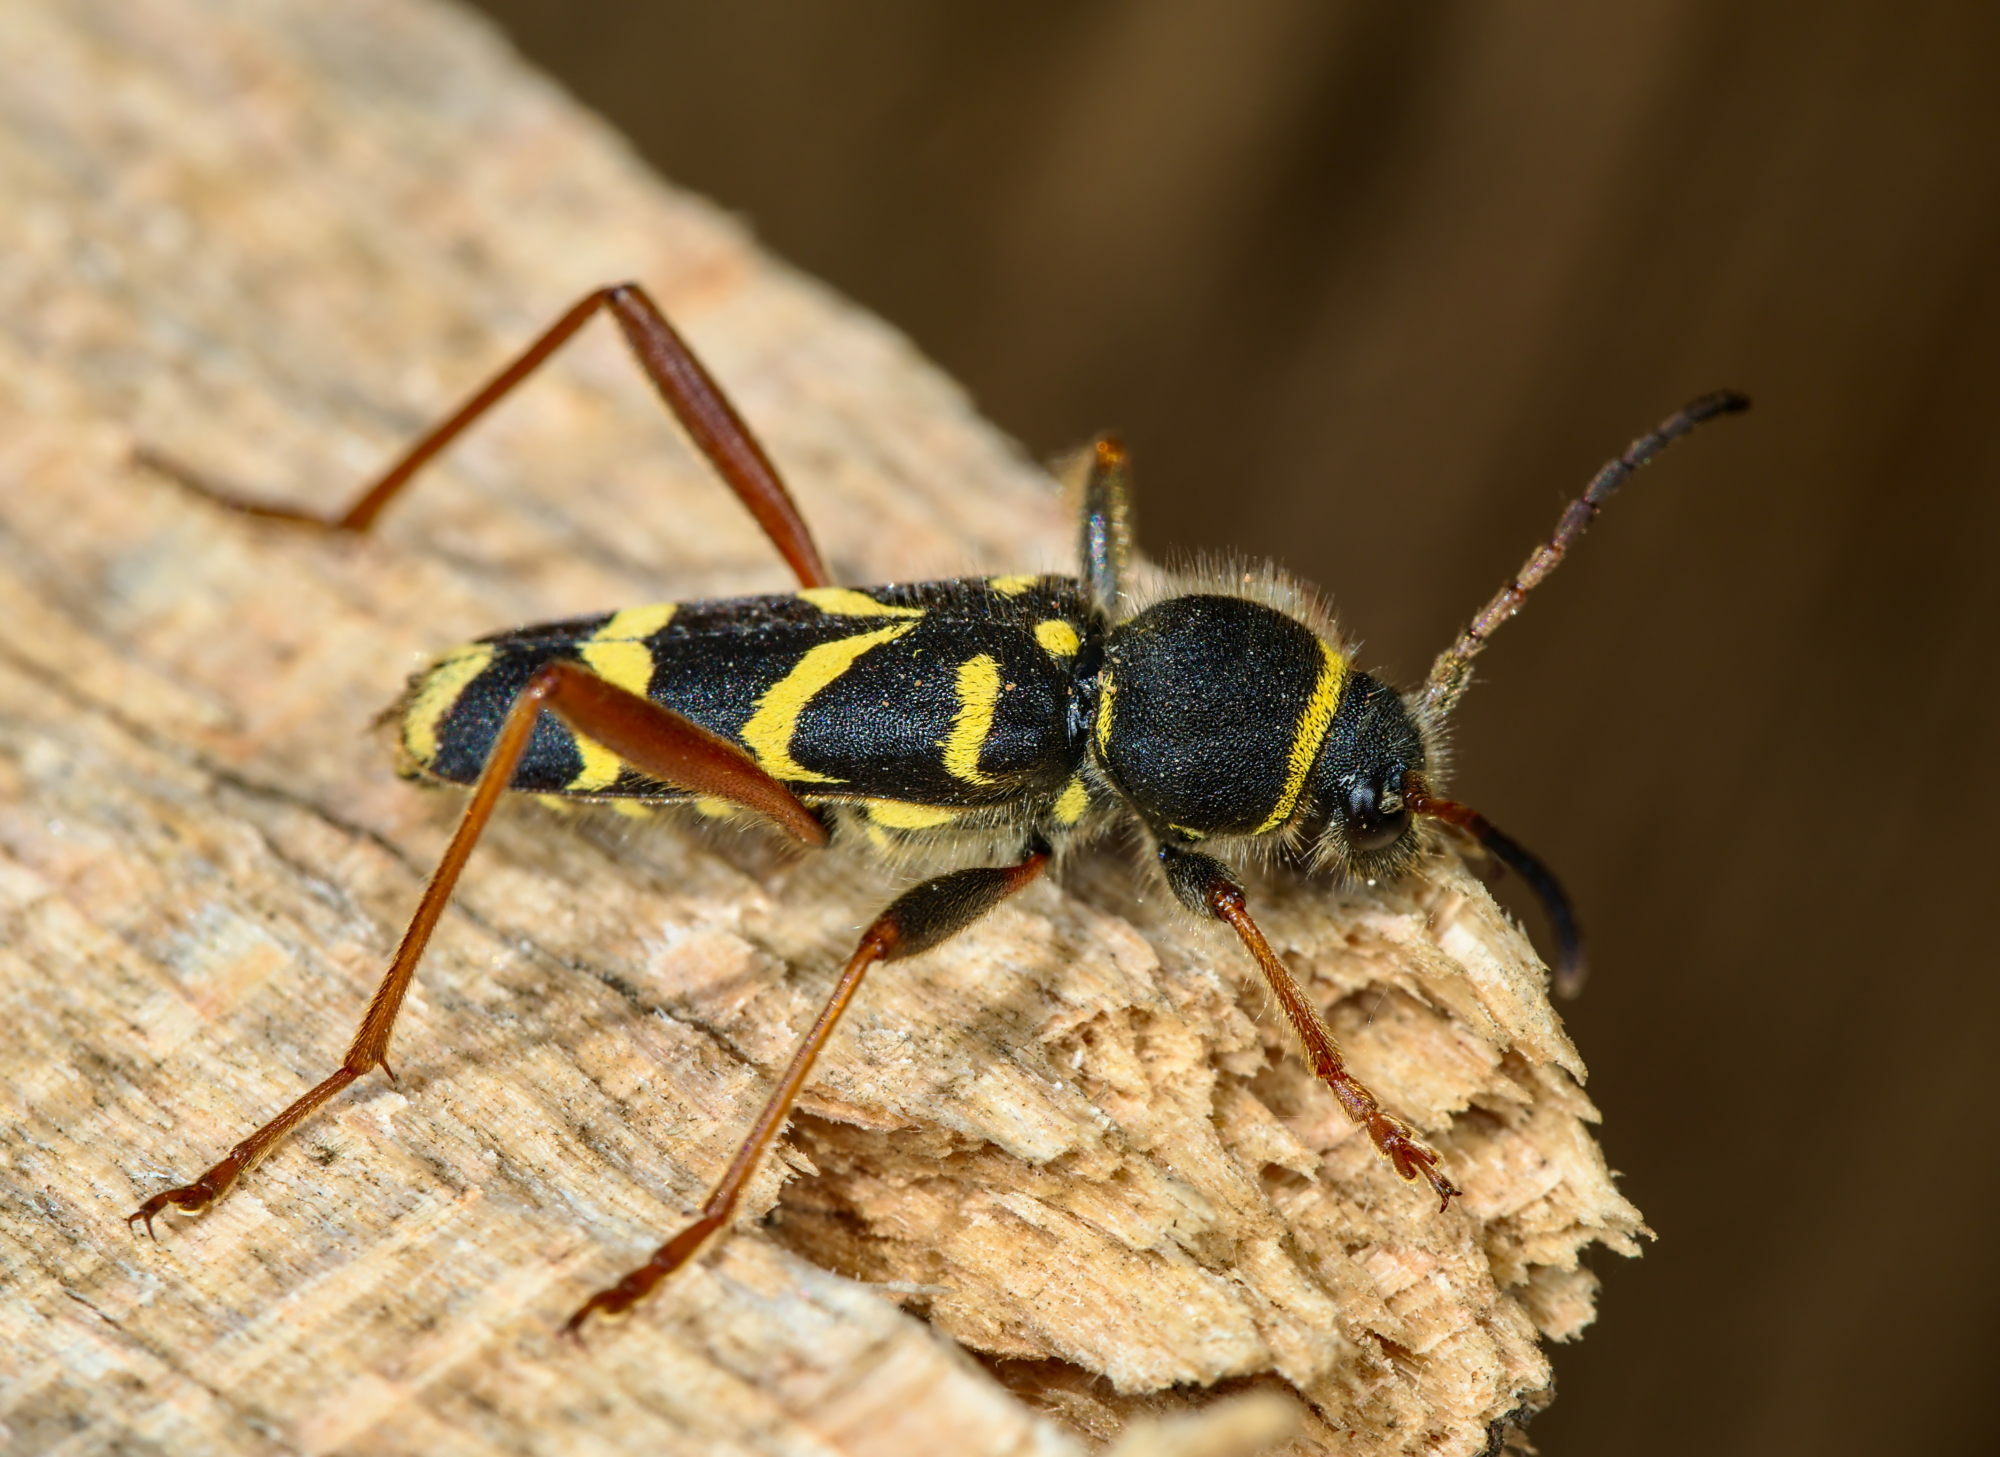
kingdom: Animalia
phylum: Arthropoda
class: Insecta
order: Coleoptera
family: Cerambycidae
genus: Clytus
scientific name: Clytus arietis
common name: Wasp beetle
